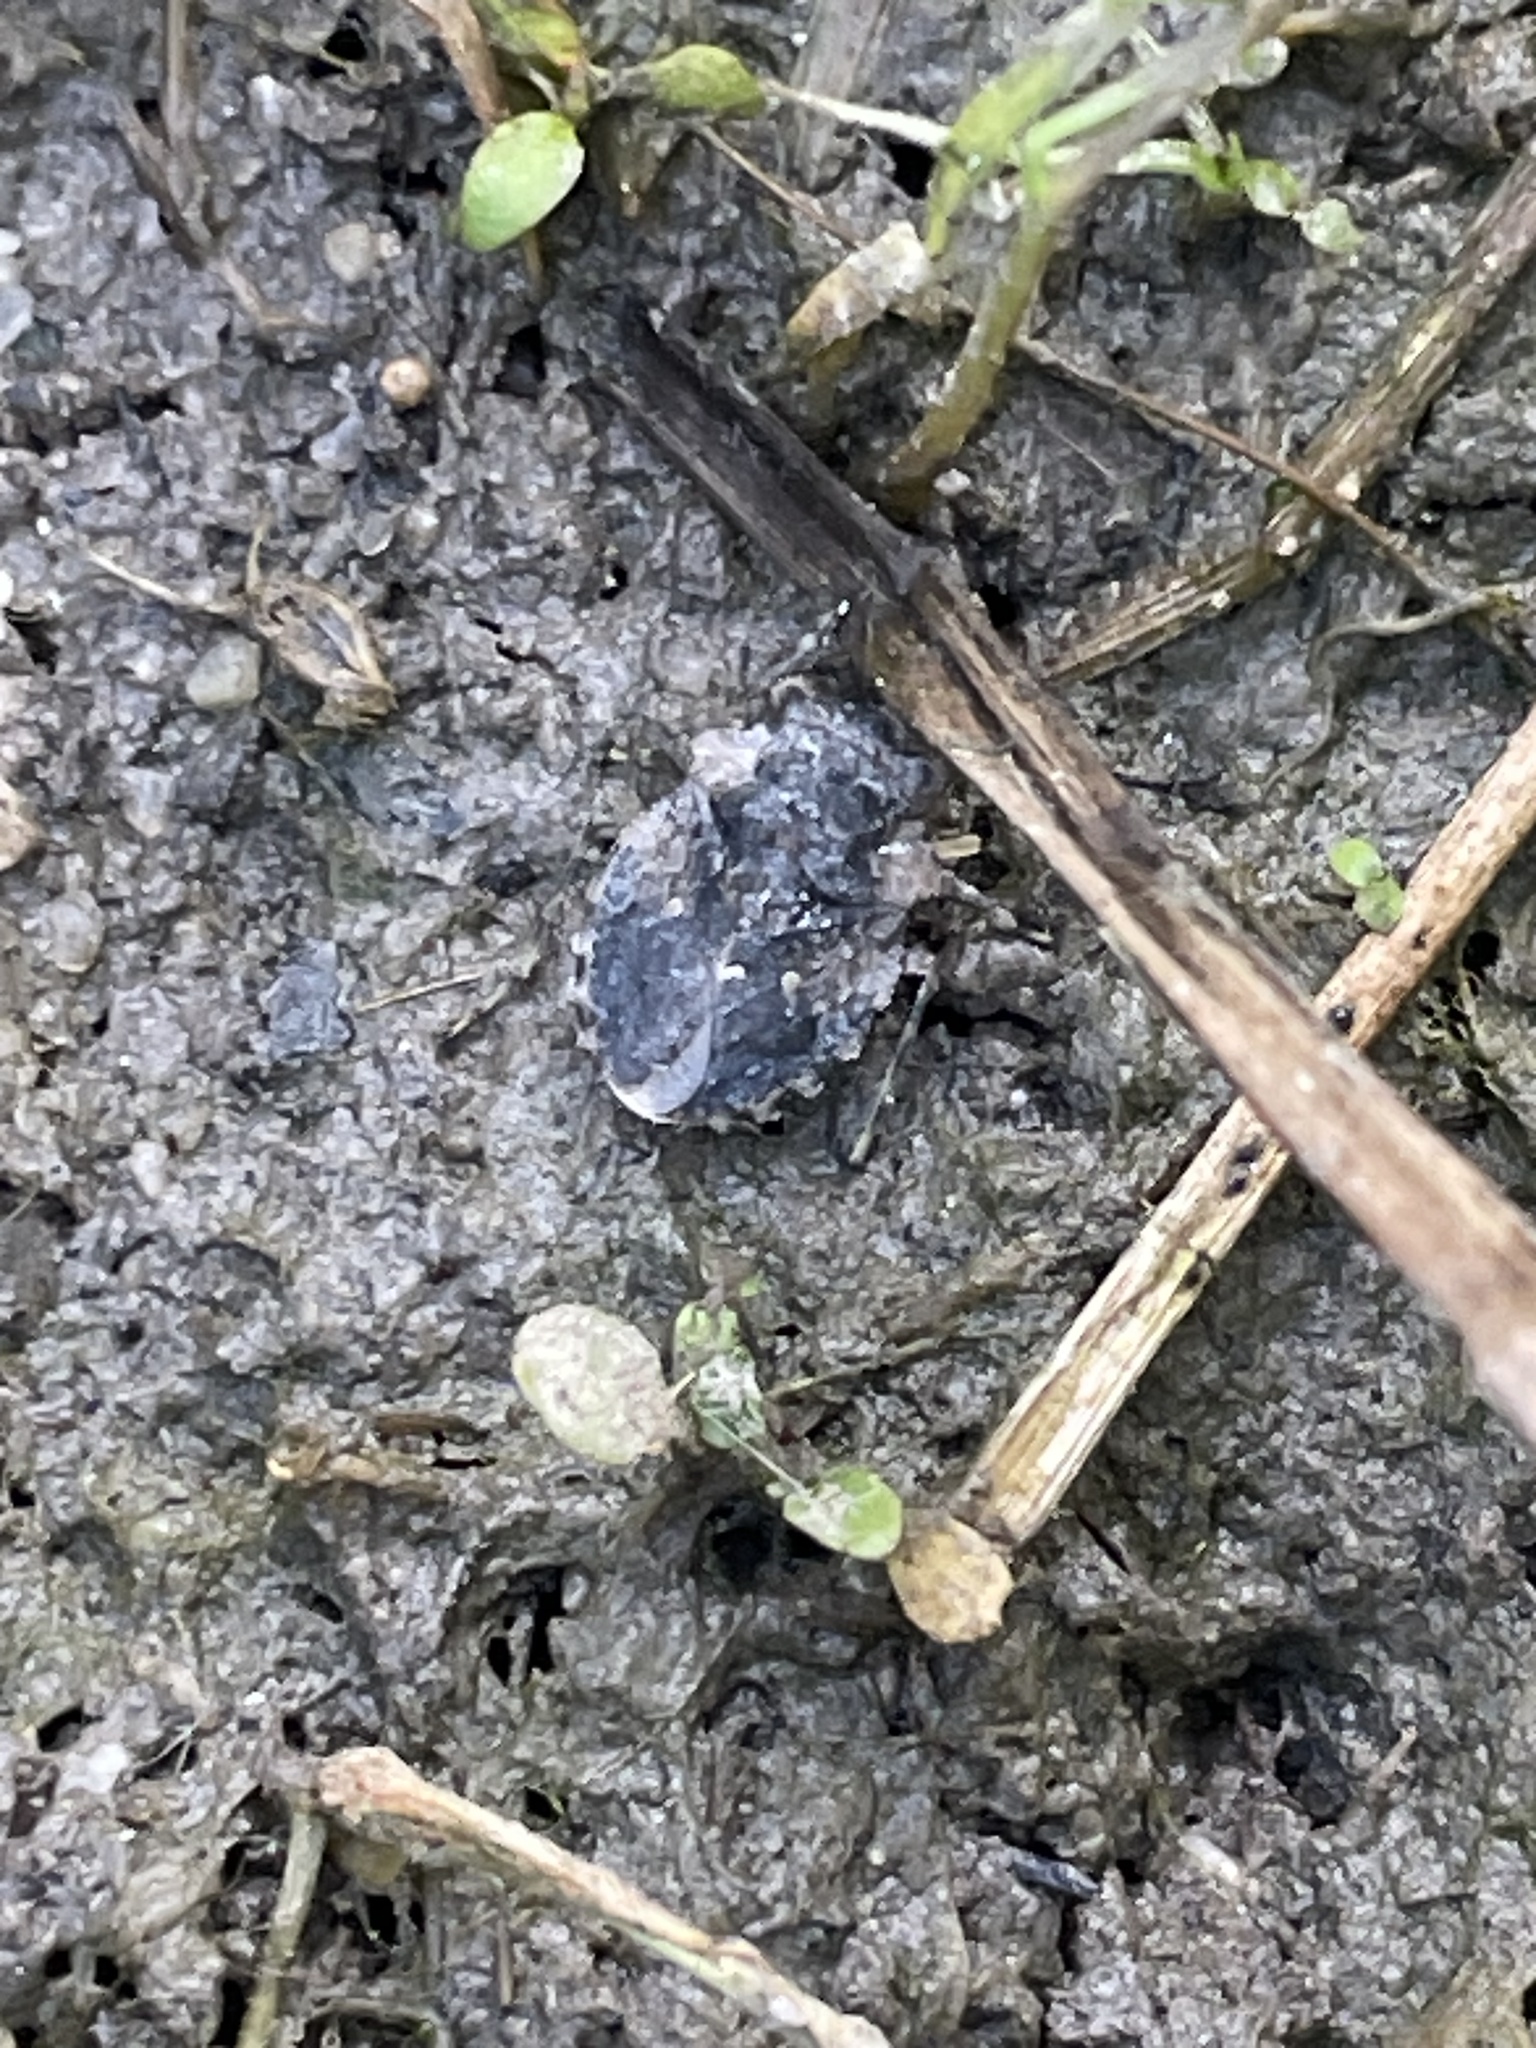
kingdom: Animalia
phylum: Arthropoda
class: Insecta
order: Hemiptera
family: Gelastocoridae
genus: Gelastocoris
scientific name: Gelastocoris oculatus
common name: Toad bug
